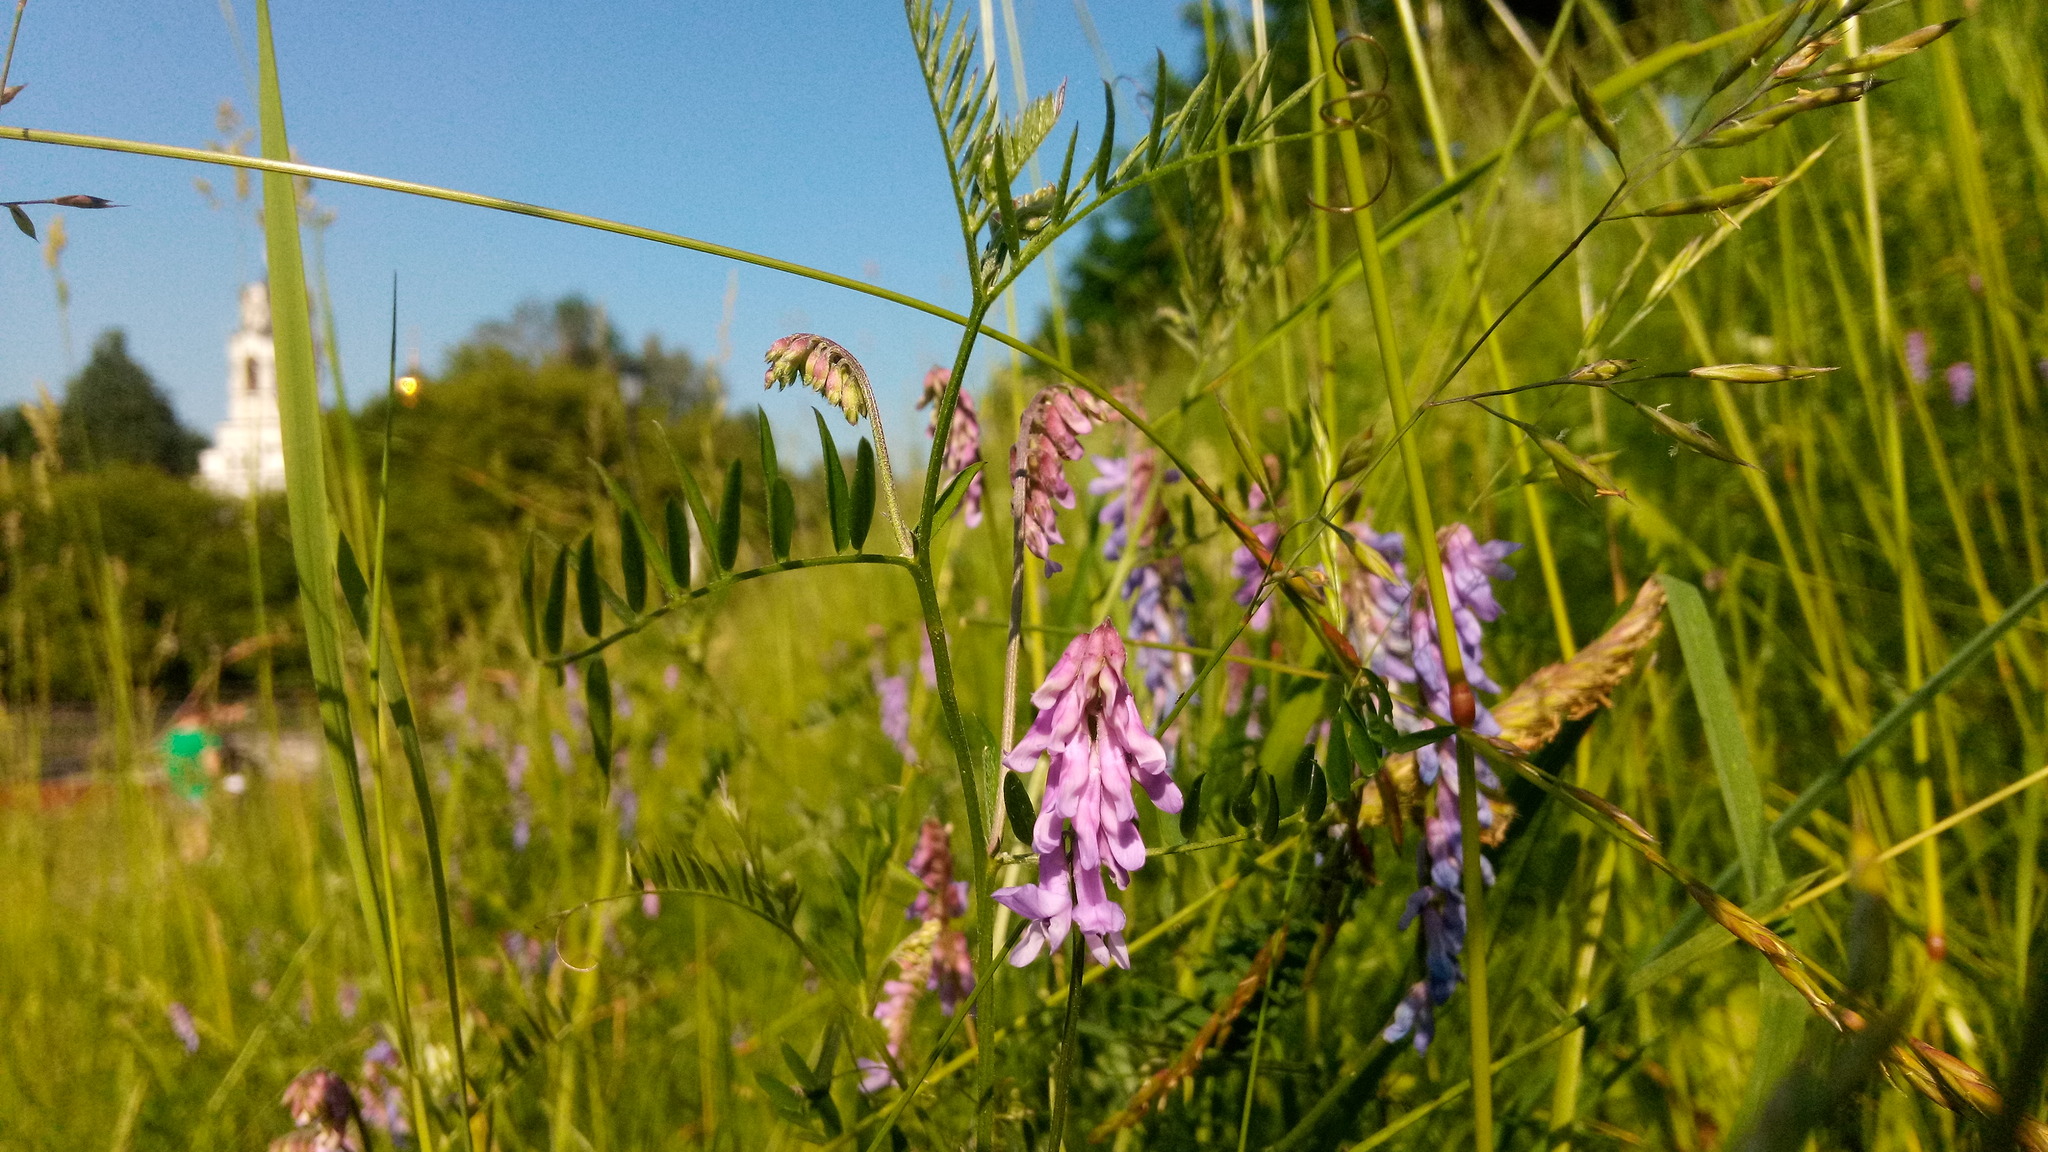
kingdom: Plantae
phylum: Tracheophyta
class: Magnoliopsida
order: Fabales
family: Fabaceae
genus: Vicia
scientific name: Vicia cracca
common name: Bird vetch
